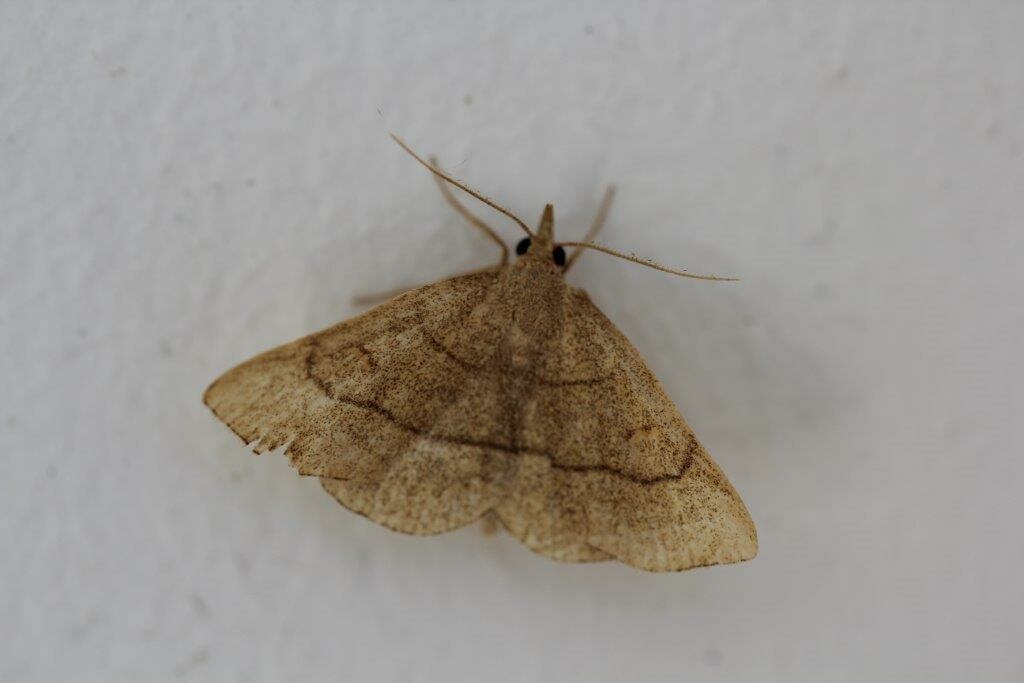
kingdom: Animalia
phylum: Arthropoda
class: Insecta
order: Lepidoptera
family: Erebidae
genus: Paracolax
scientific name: Paracolax tristalis
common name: Clay fan-foot
